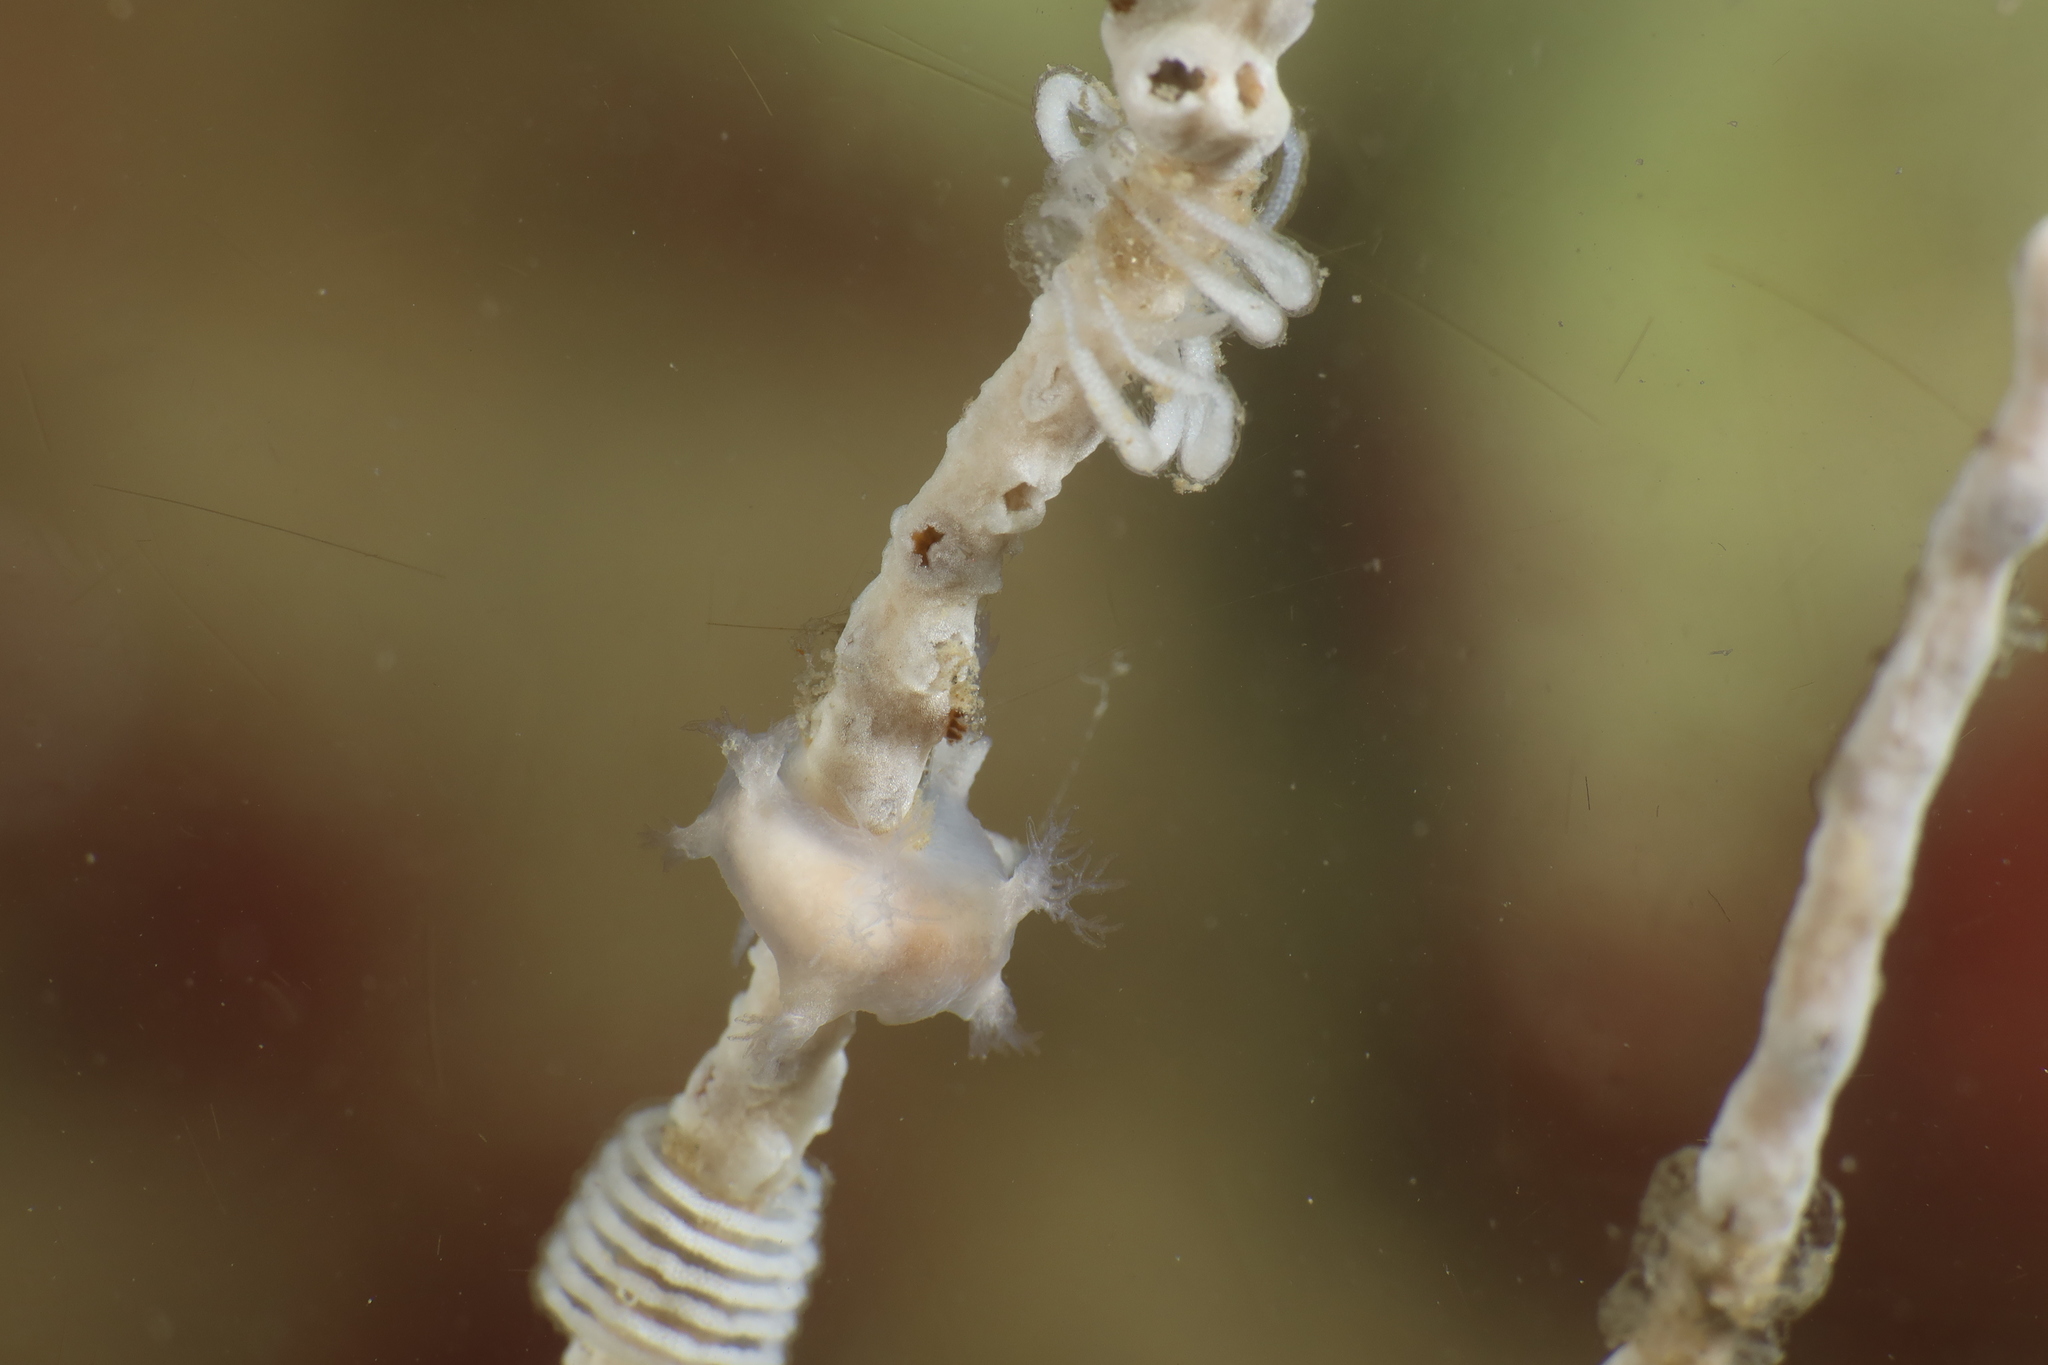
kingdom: Animalia
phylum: Mollusca
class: Gastropoda
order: Nudibranchia
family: Tritoniidae
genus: Duvaucelia
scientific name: Duvaucelia odhneri
